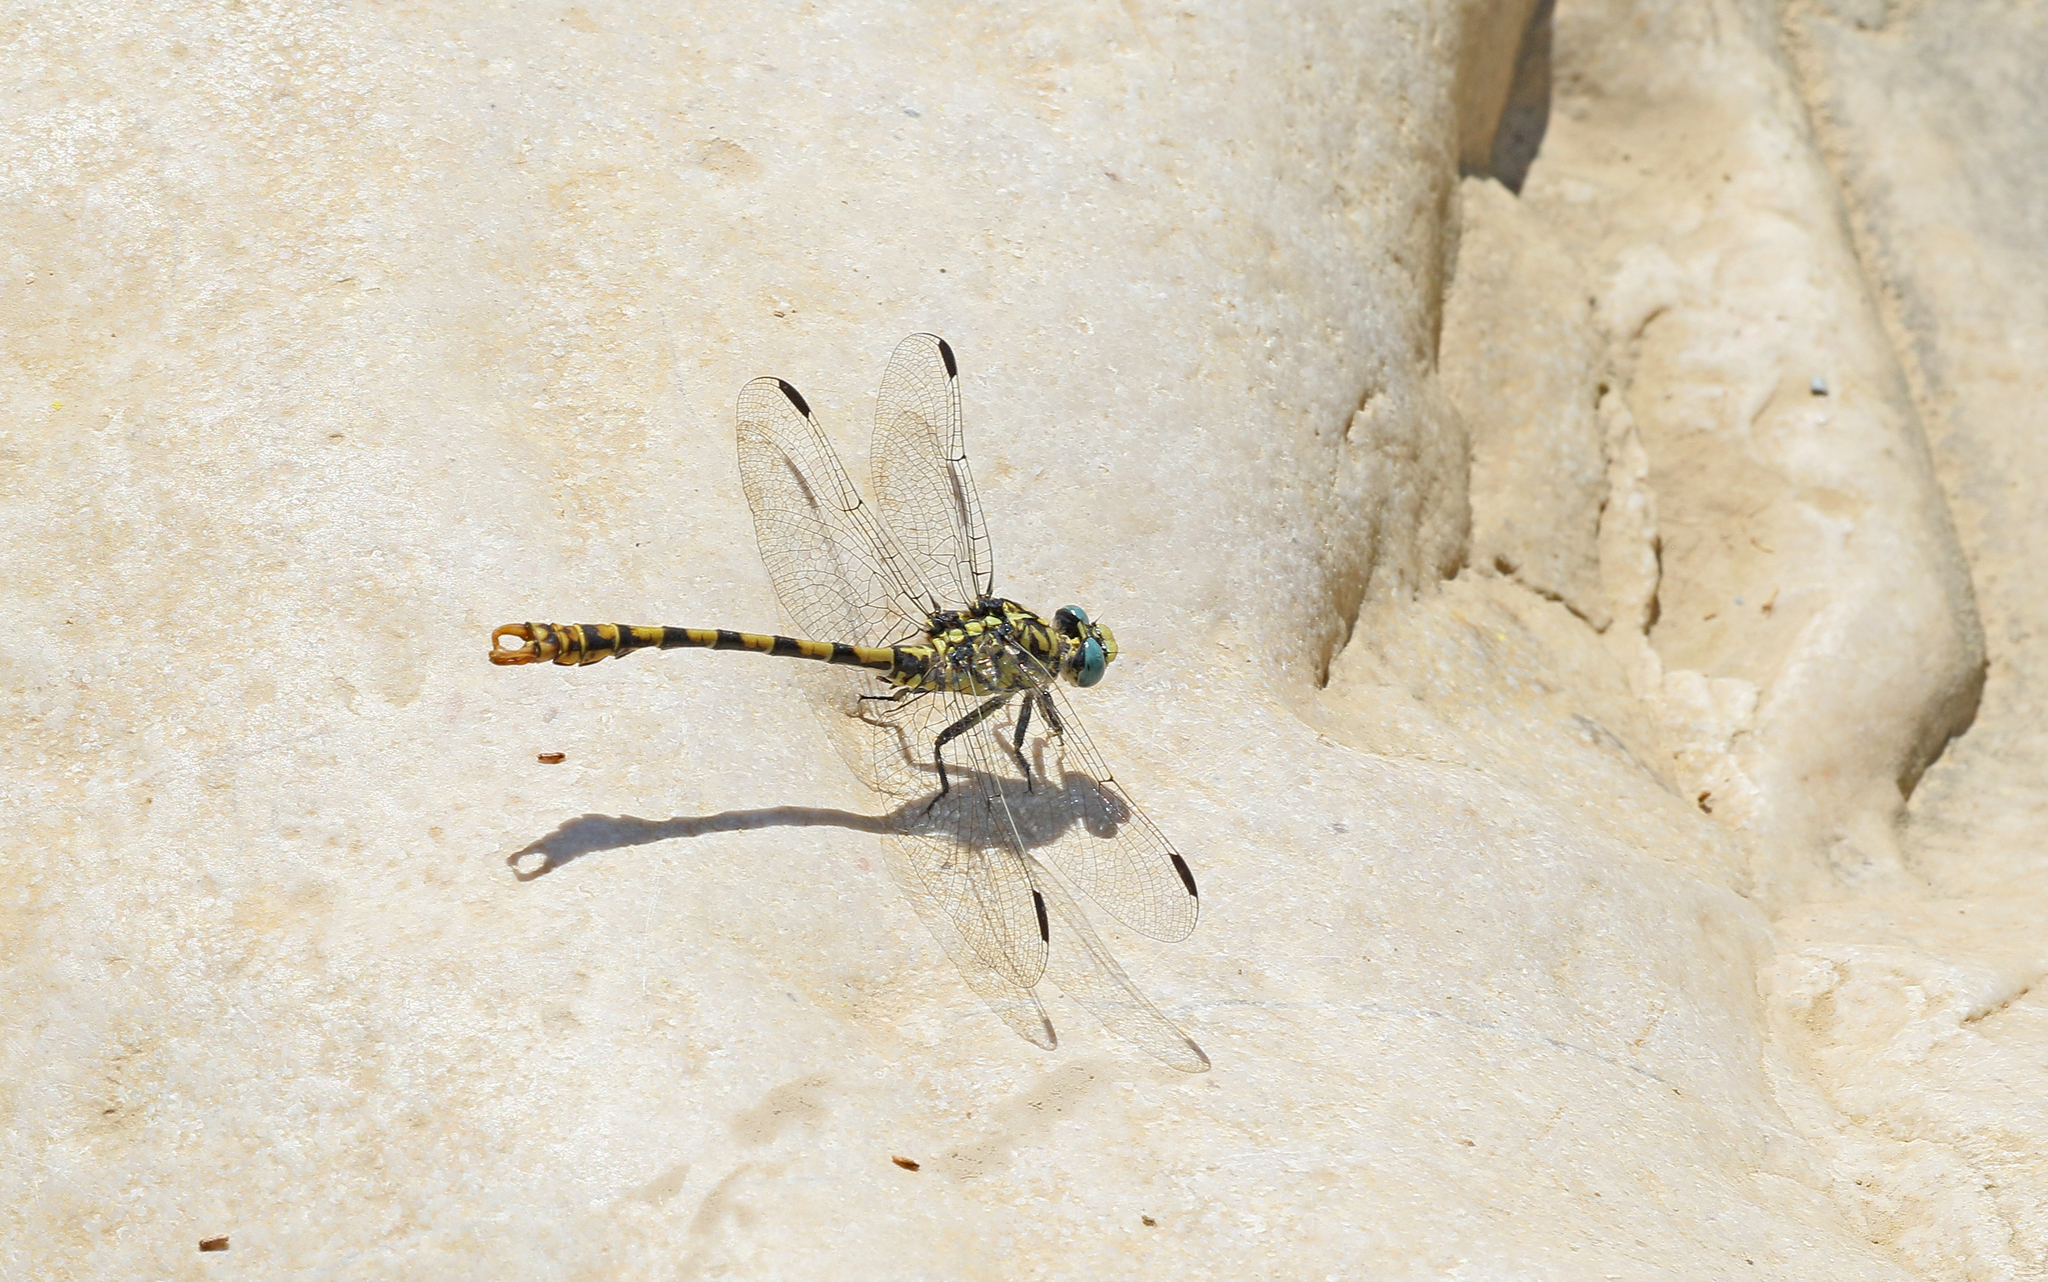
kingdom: Animalia
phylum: Arthropoda
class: Insecta
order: Odonata
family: Gomphidae
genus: Onychogomphus
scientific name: Onychogomphus forcipatus
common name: Small pincertail
